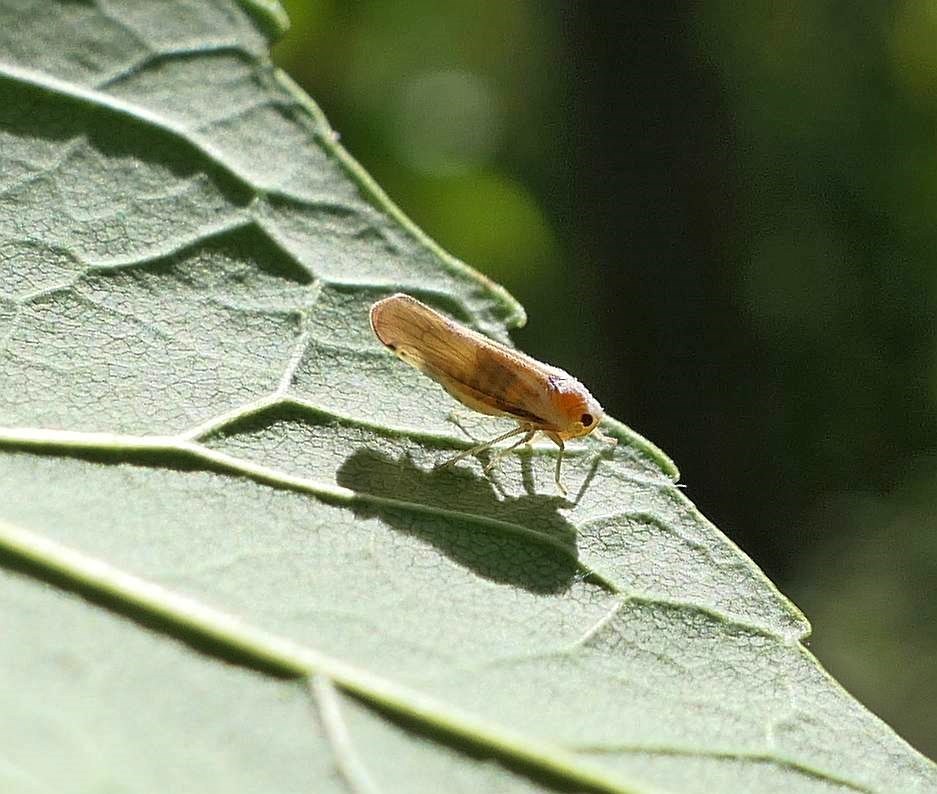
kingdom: Animalia
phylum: Arthropoda
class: Insecta
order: Hemiptera
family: Derbidae
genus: Omolicna
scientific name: Omolicna uhleri
